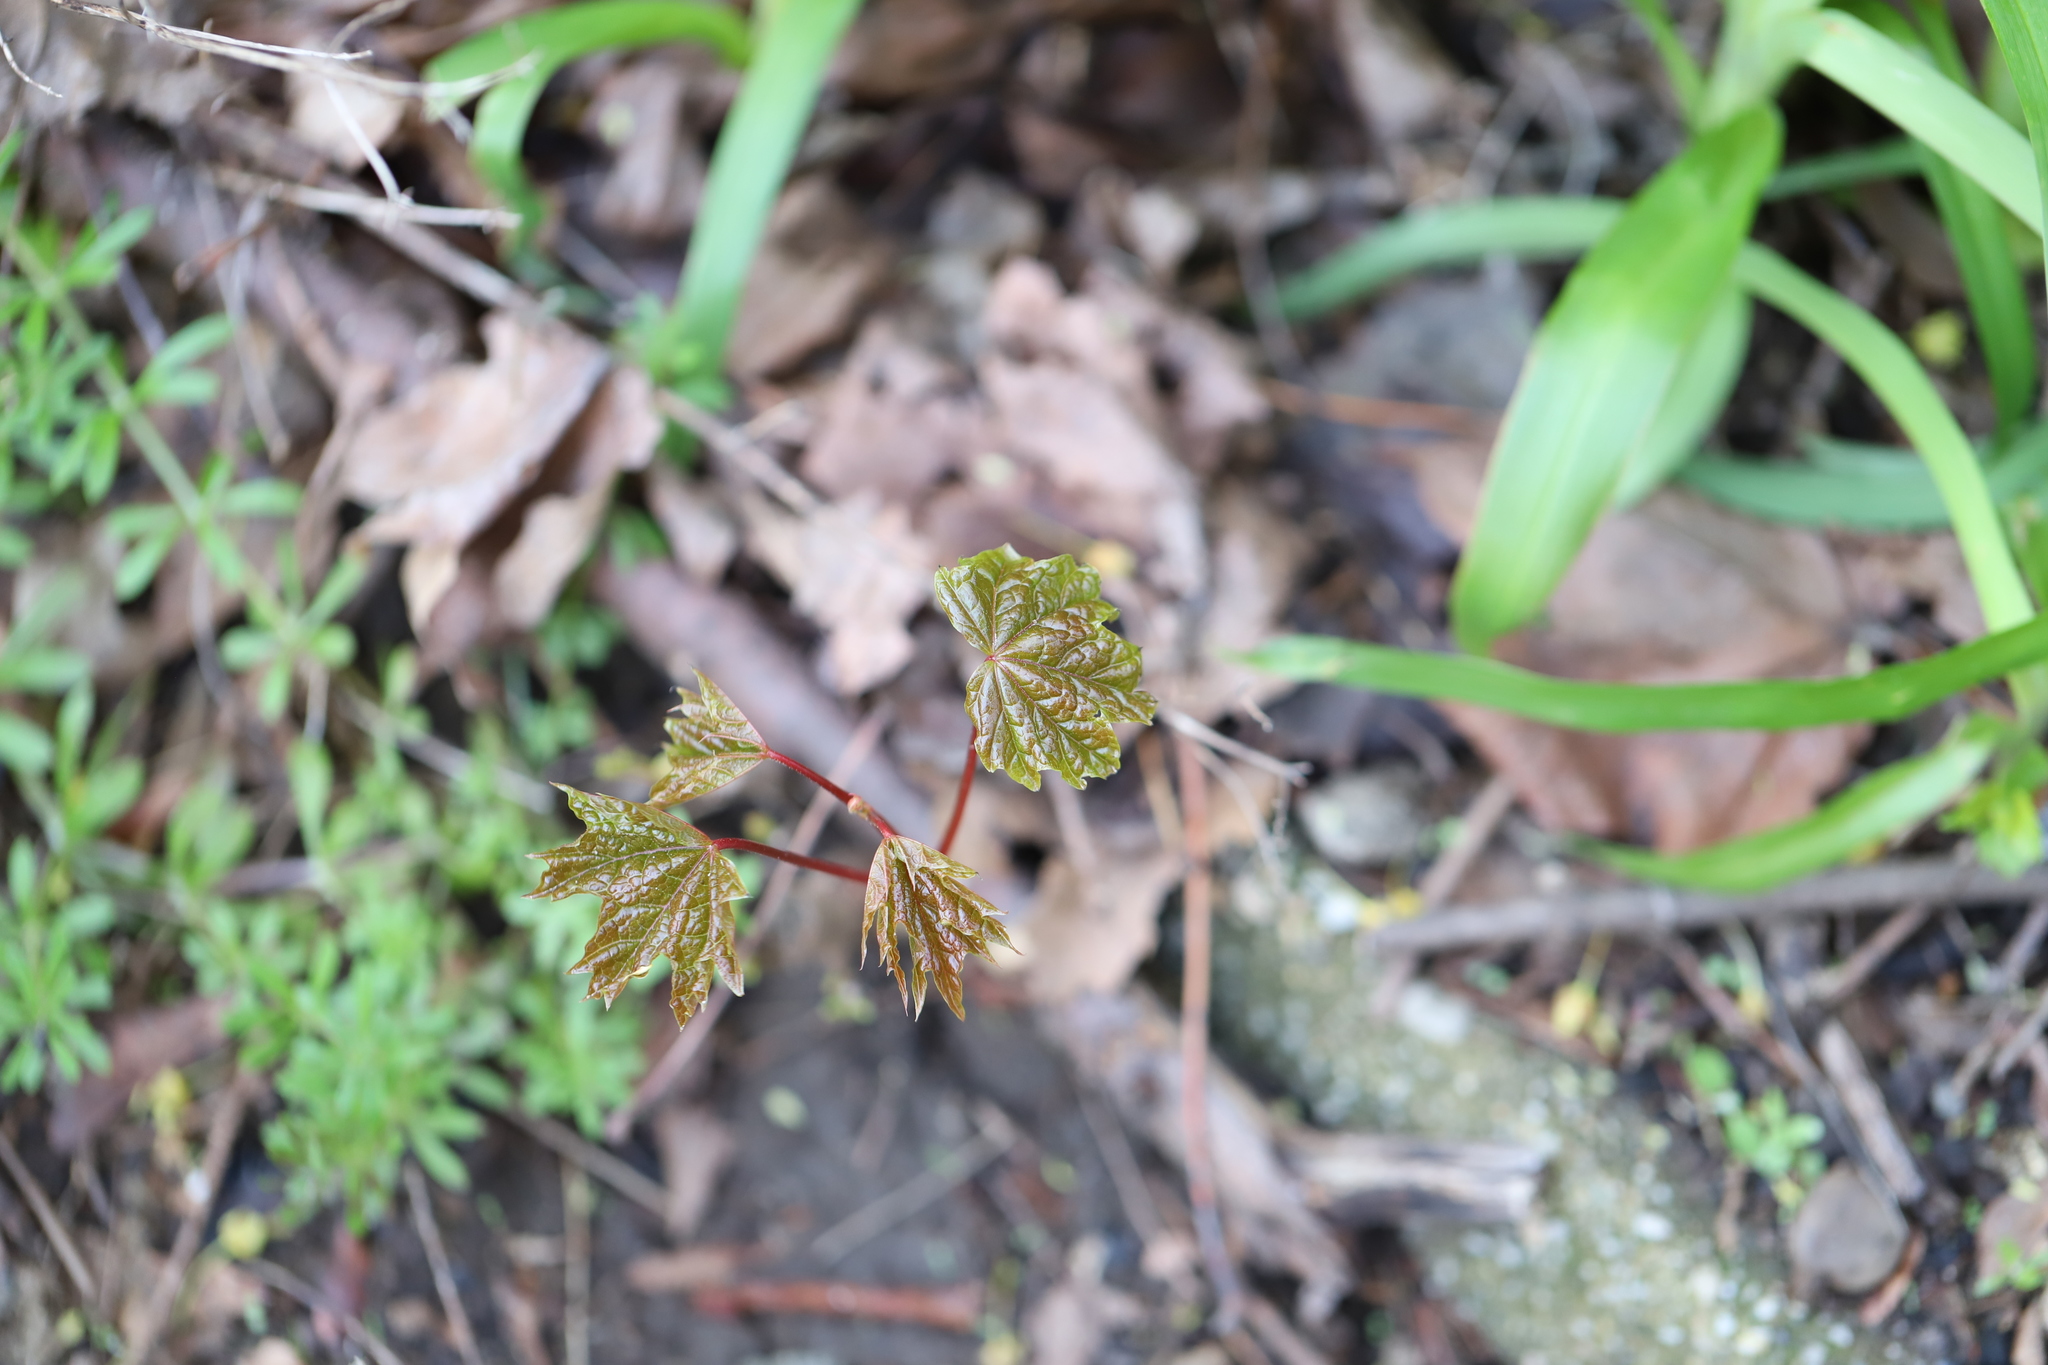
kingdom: Plantae
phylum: Tracheophyta
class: Magnoliopsida
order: Sapindales
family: Sapindaceae
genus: Acer
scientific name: Acer platanoides
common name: Norway maple
